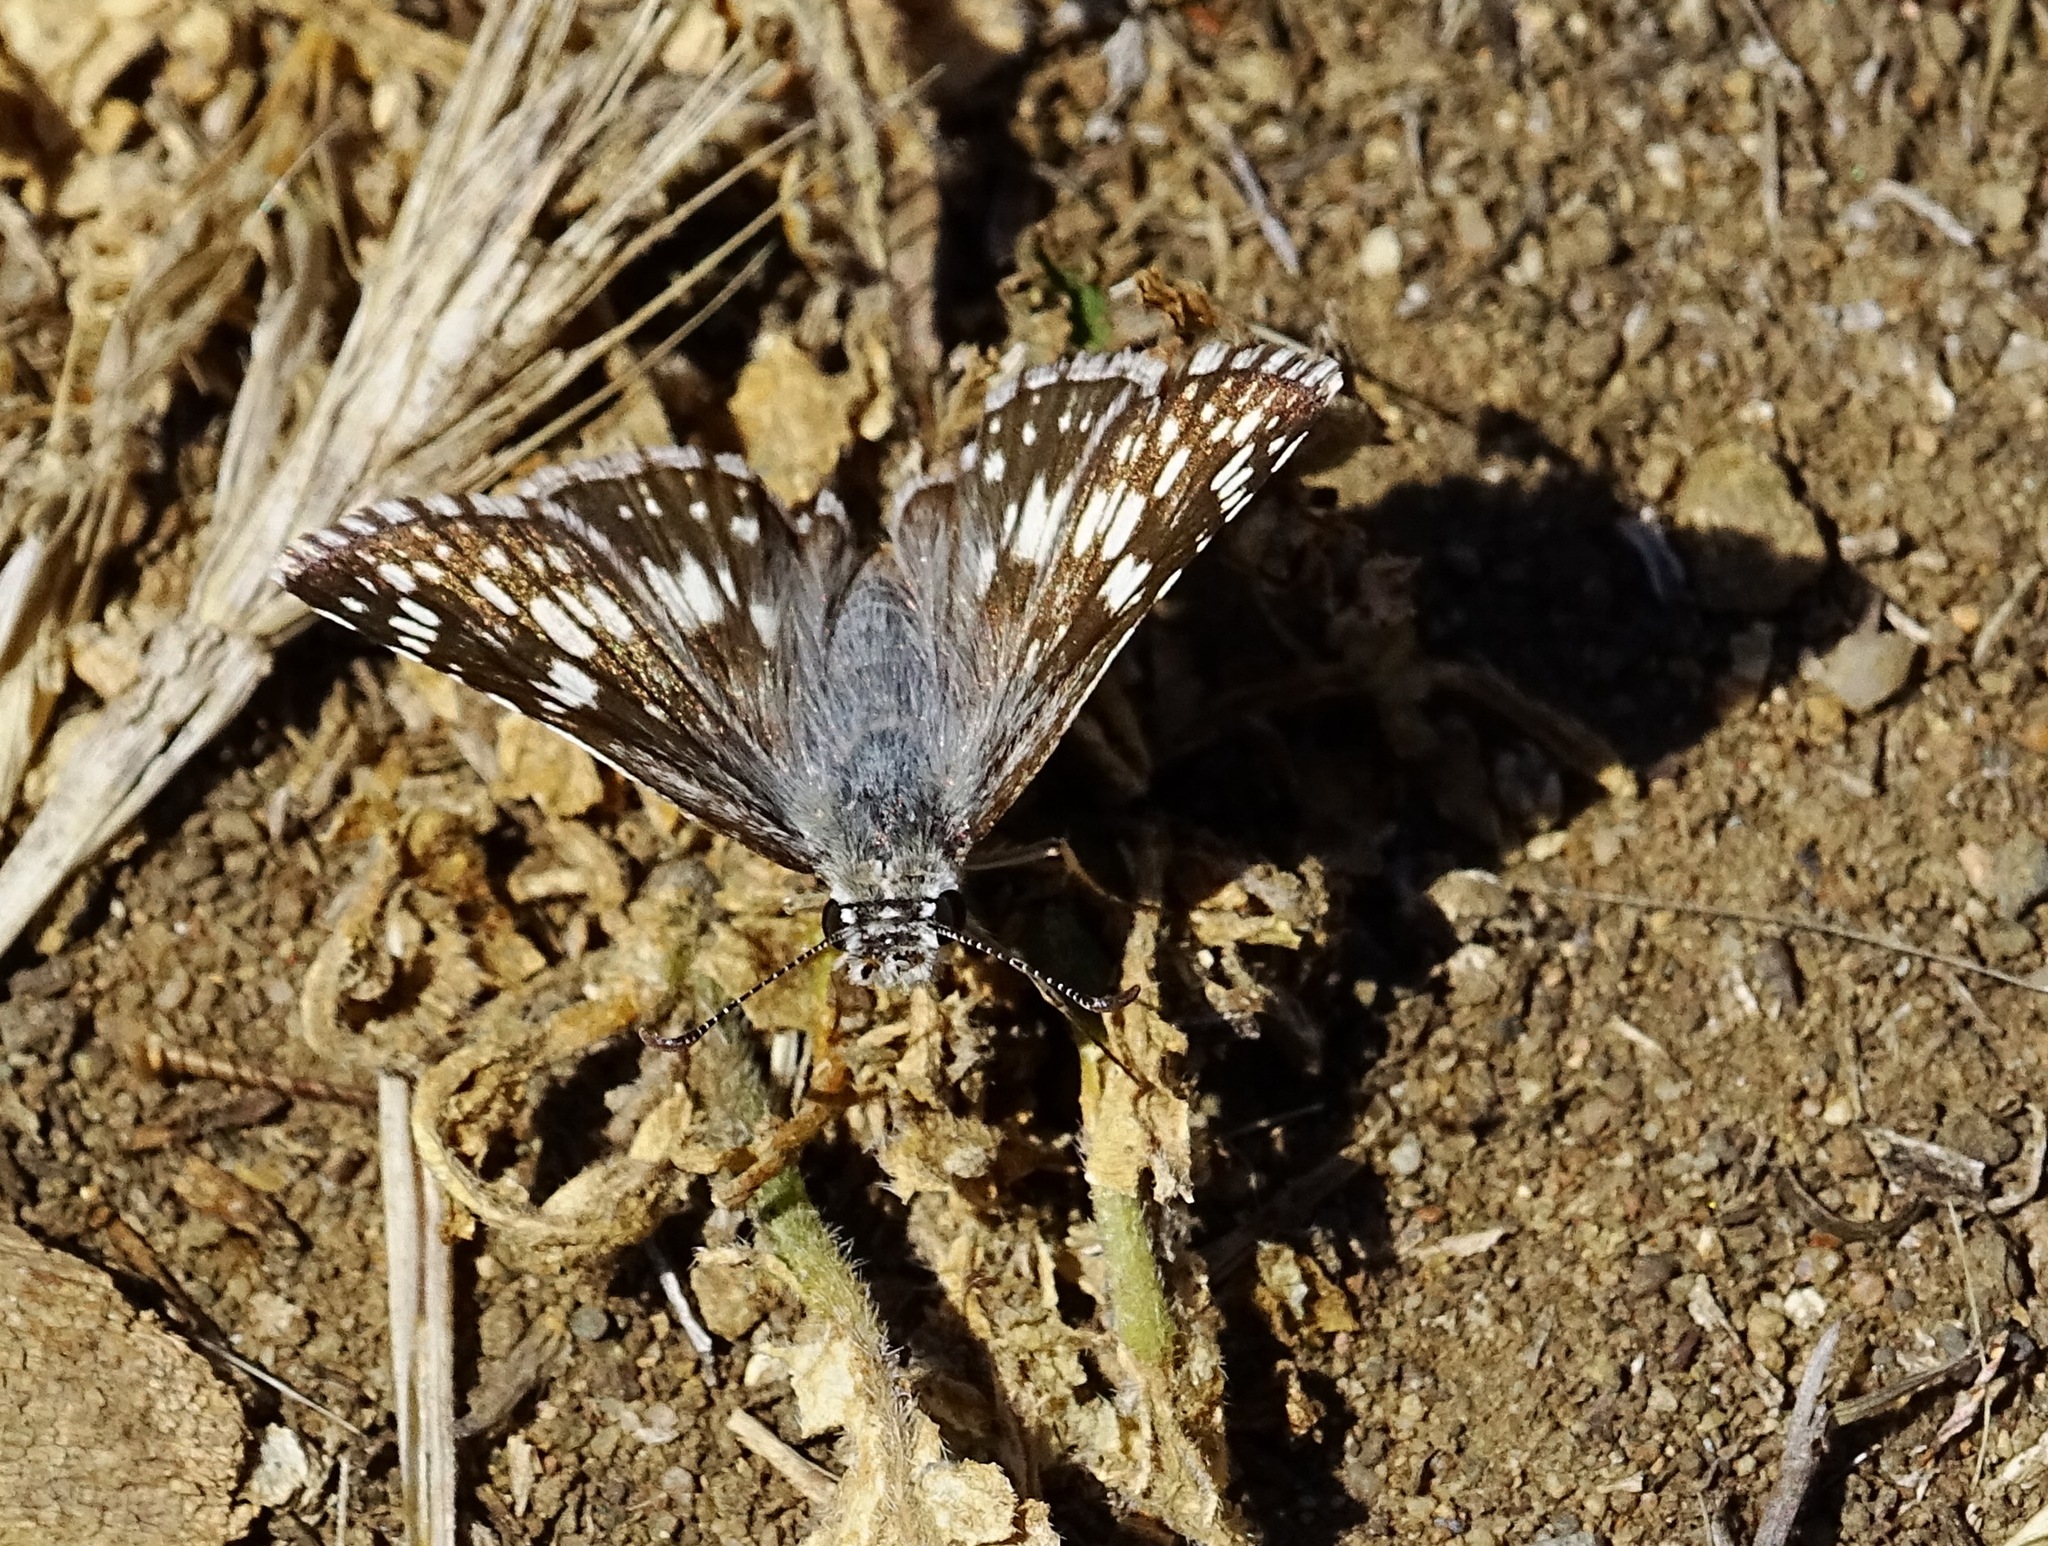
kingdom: Animalia
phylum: Arthropoda
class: Insecta
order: Lepidoptera
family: Hesperiidae
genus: Burnsius
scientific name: Burnsius albezens
